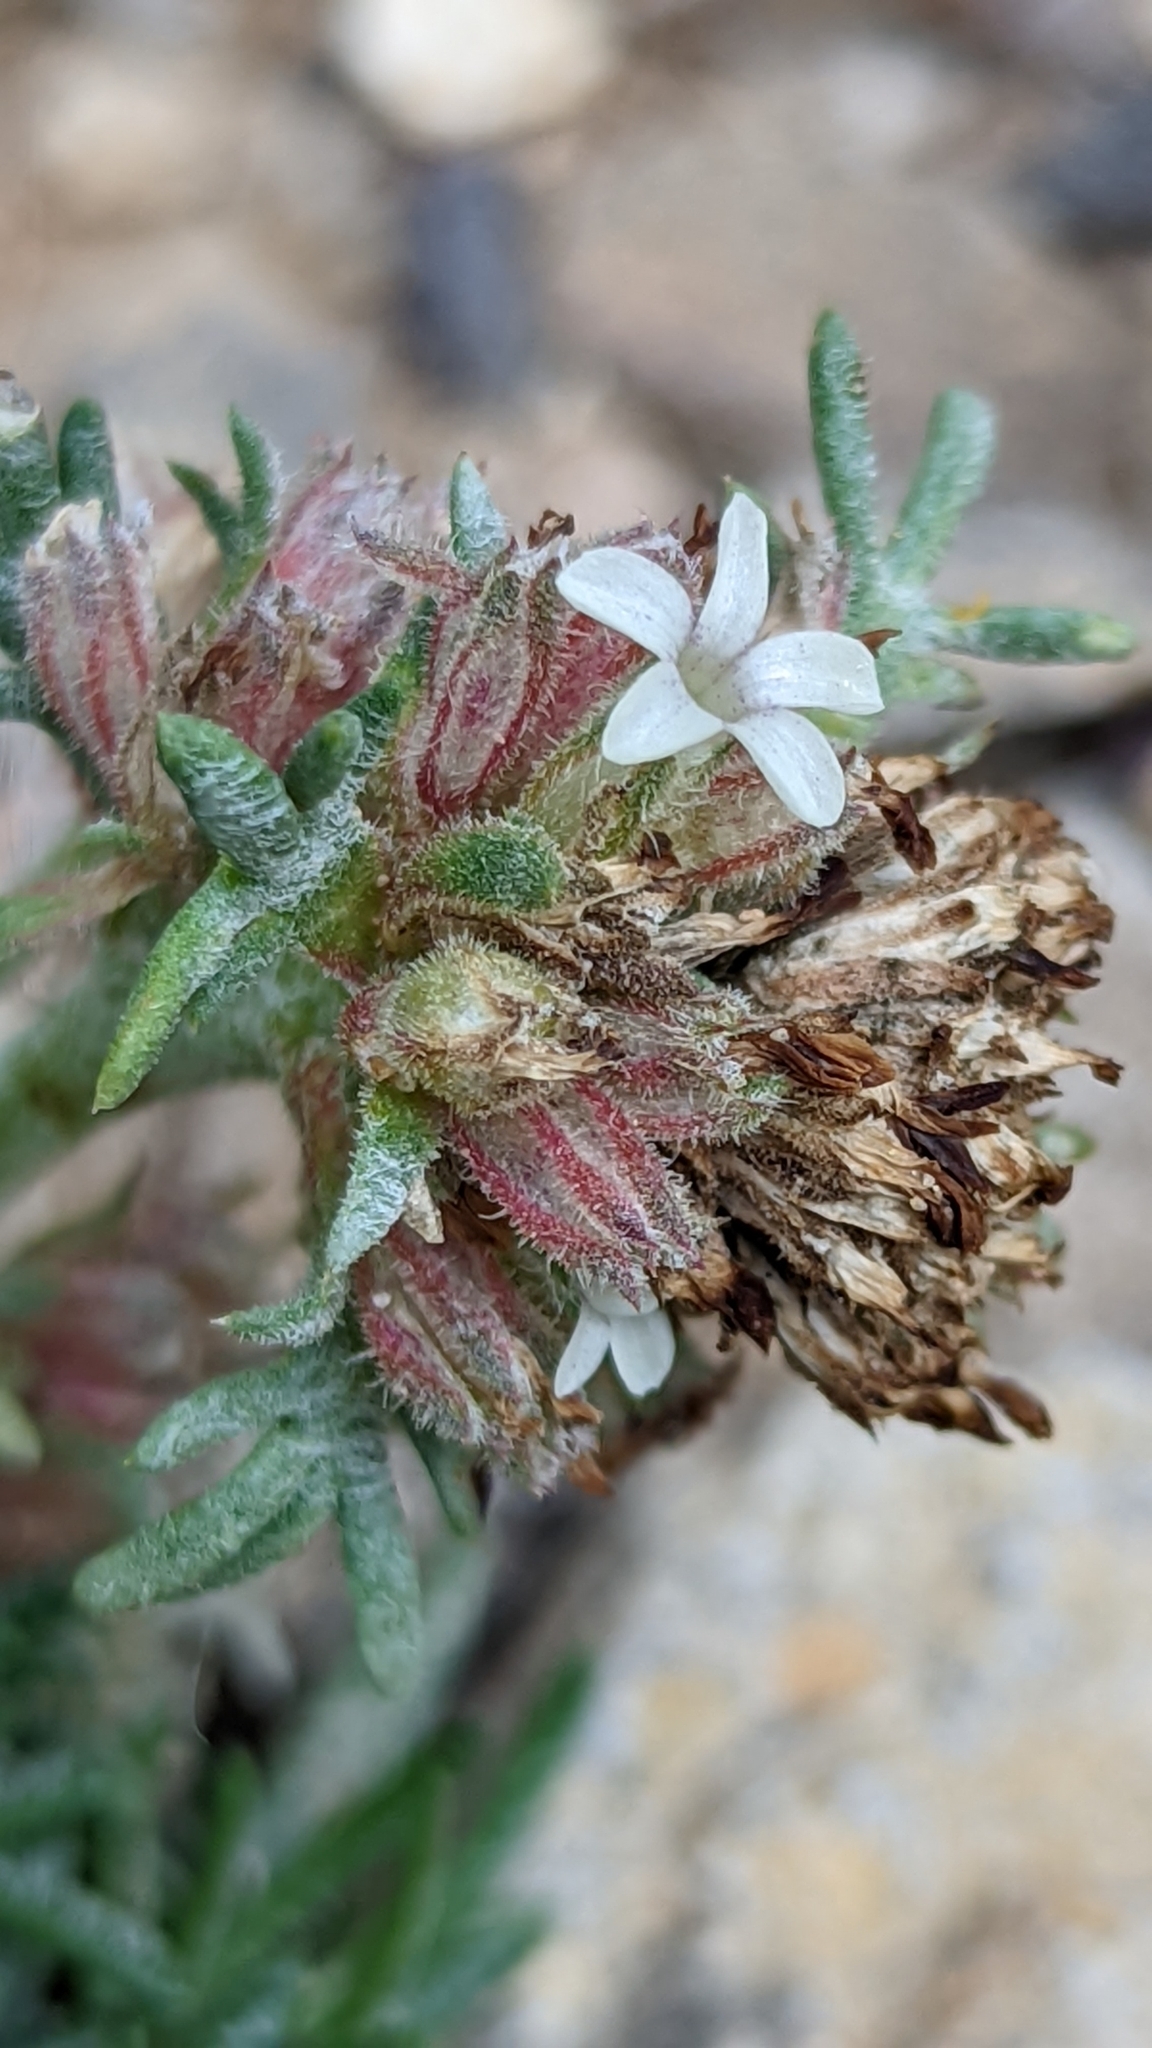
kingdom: Plantae
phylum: Tracheophyta
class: Magnoliopsida
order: Ericales
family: Polemoniaceae
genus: Ipomopsis
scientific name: Ipomopsis spicata
